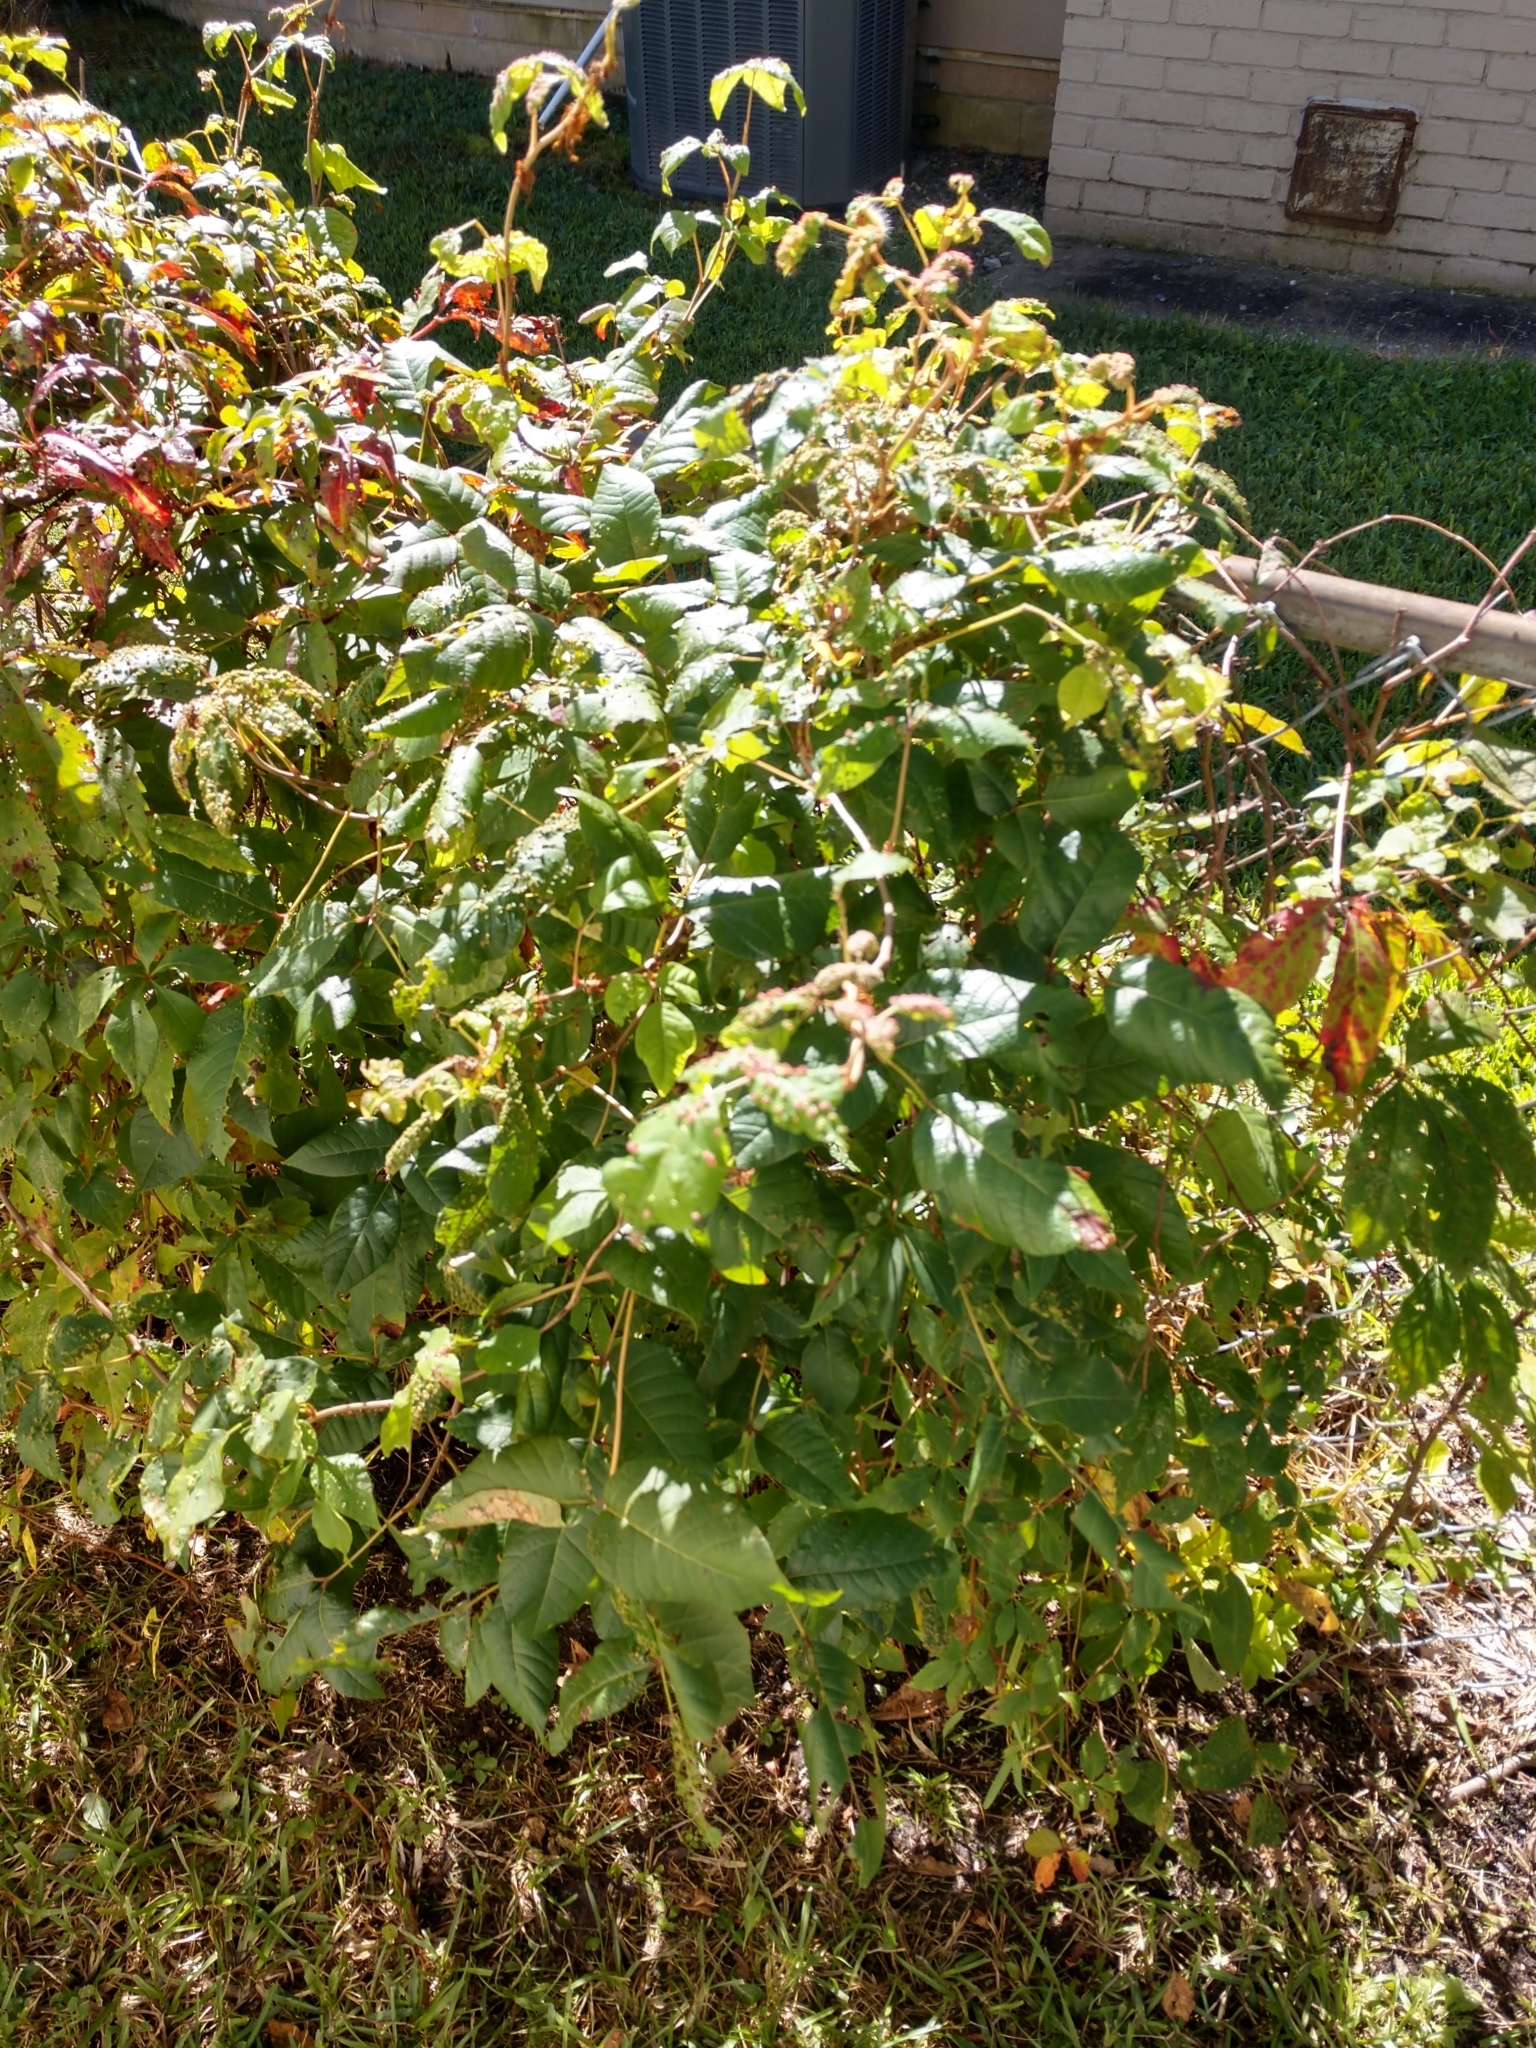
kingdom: Plantae
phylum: Tracheophyta
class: Magnoliopsida
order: Sapindales
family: Anacardiaceae
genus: Toxicodendron
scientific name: Toxicodendron radicans
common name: Poison ivy
